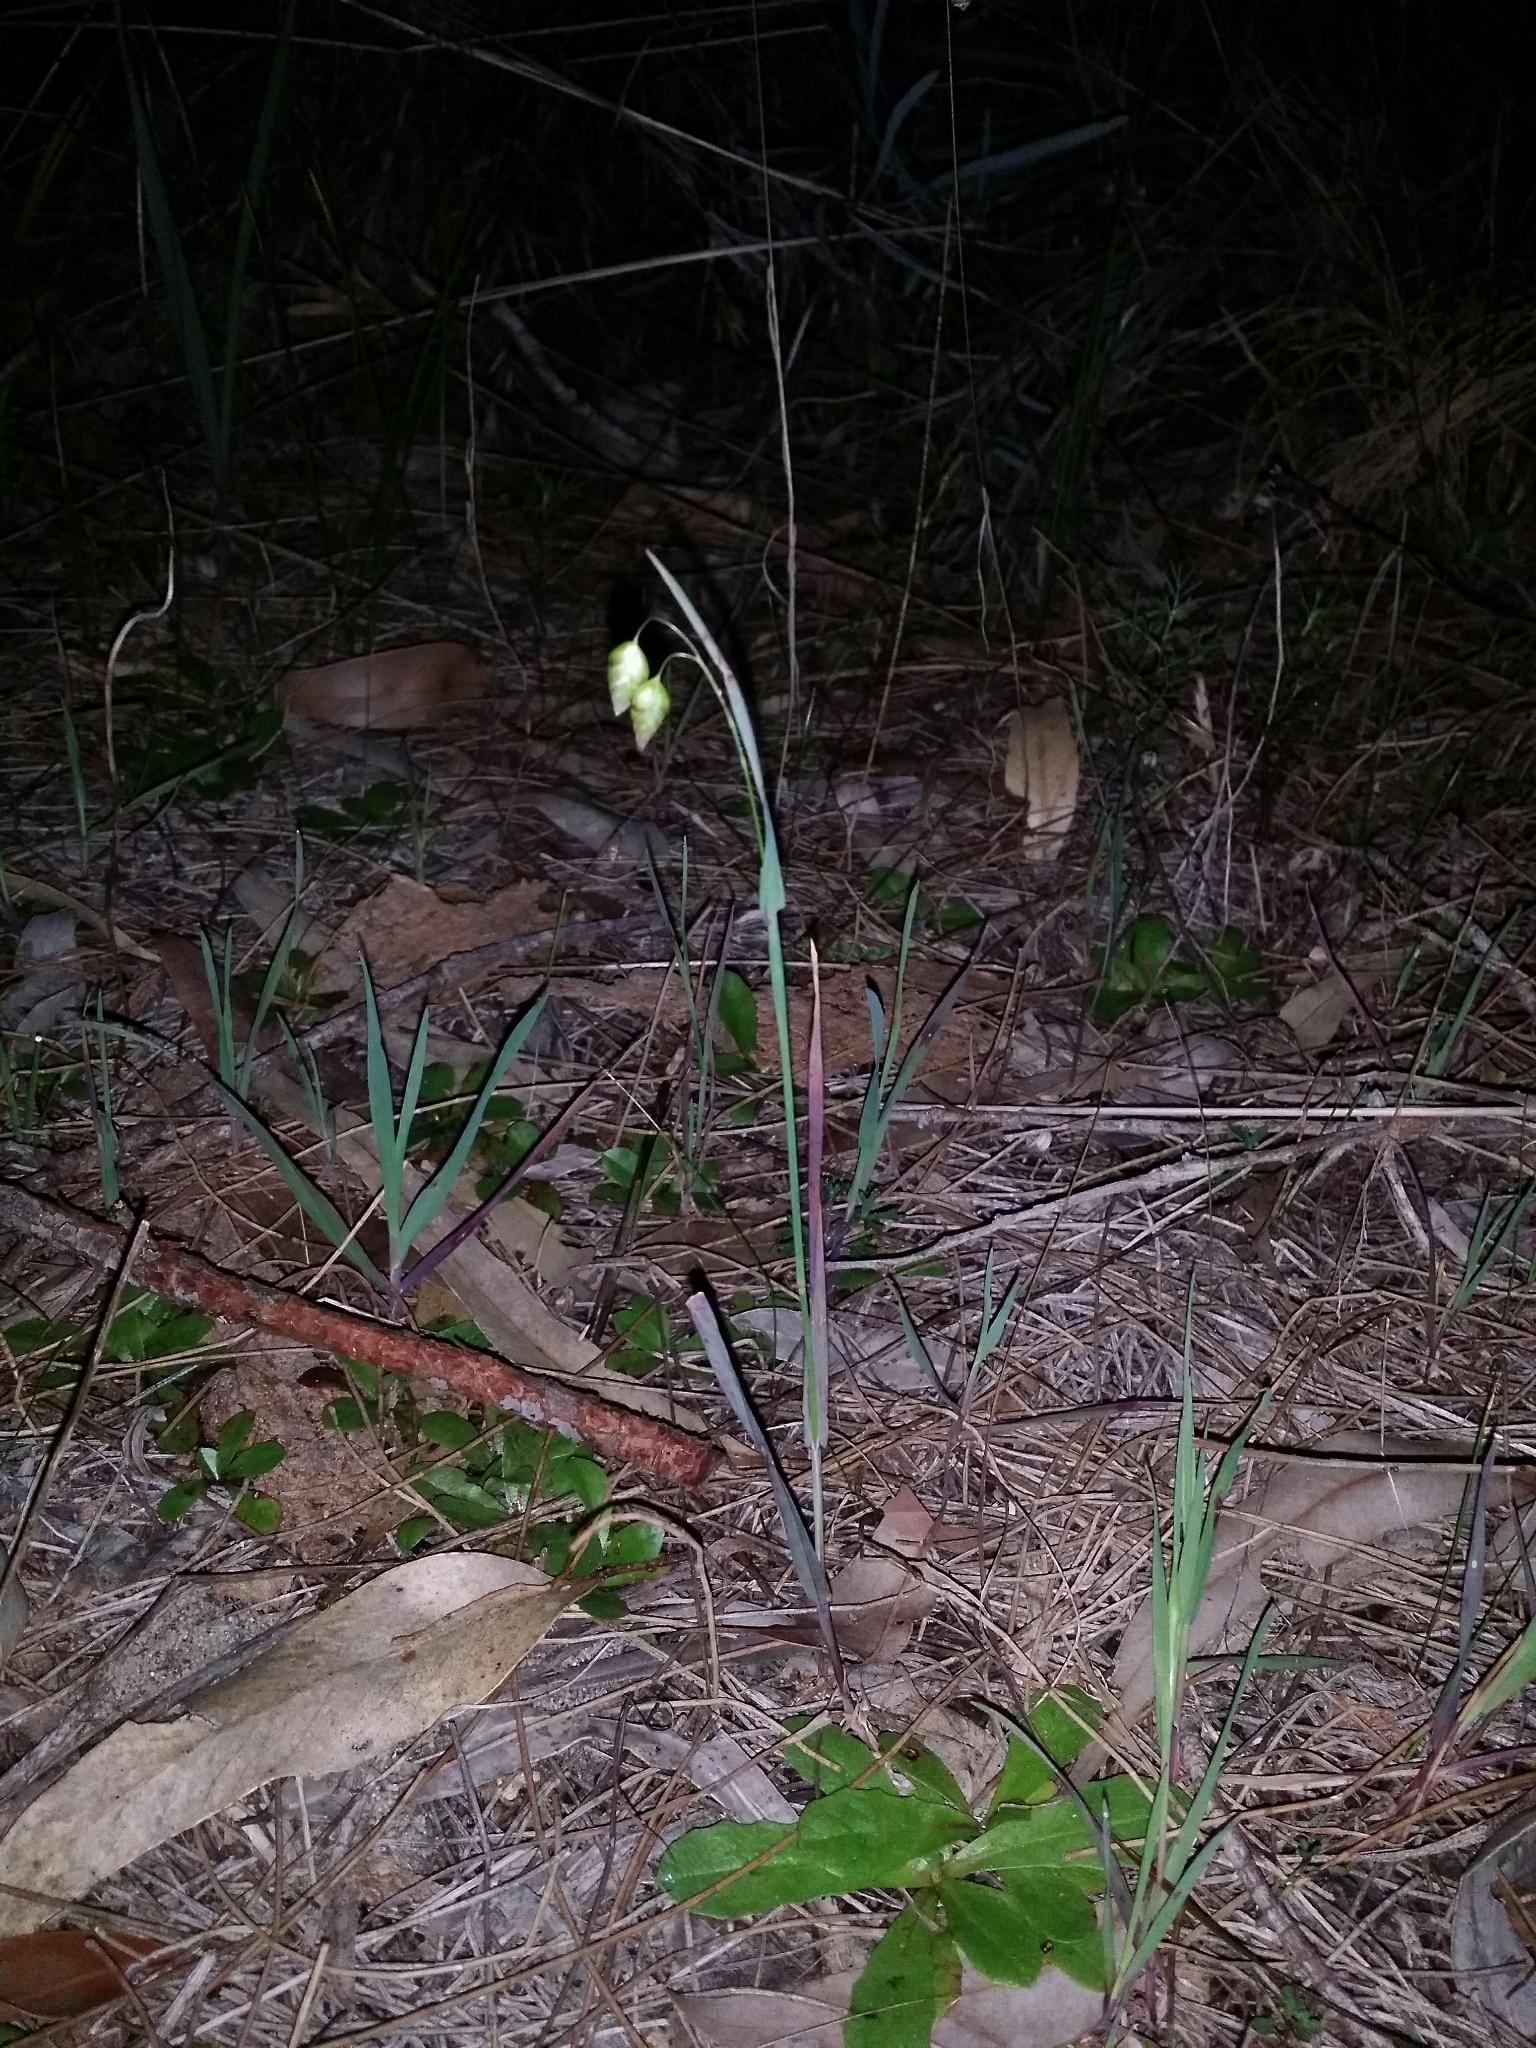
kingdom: Plantae
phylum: Tracheophyta
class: Liliopsida
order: Poales
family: Poaceae
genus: Briza
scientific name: Briza maxima
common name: Big quakinggrass
